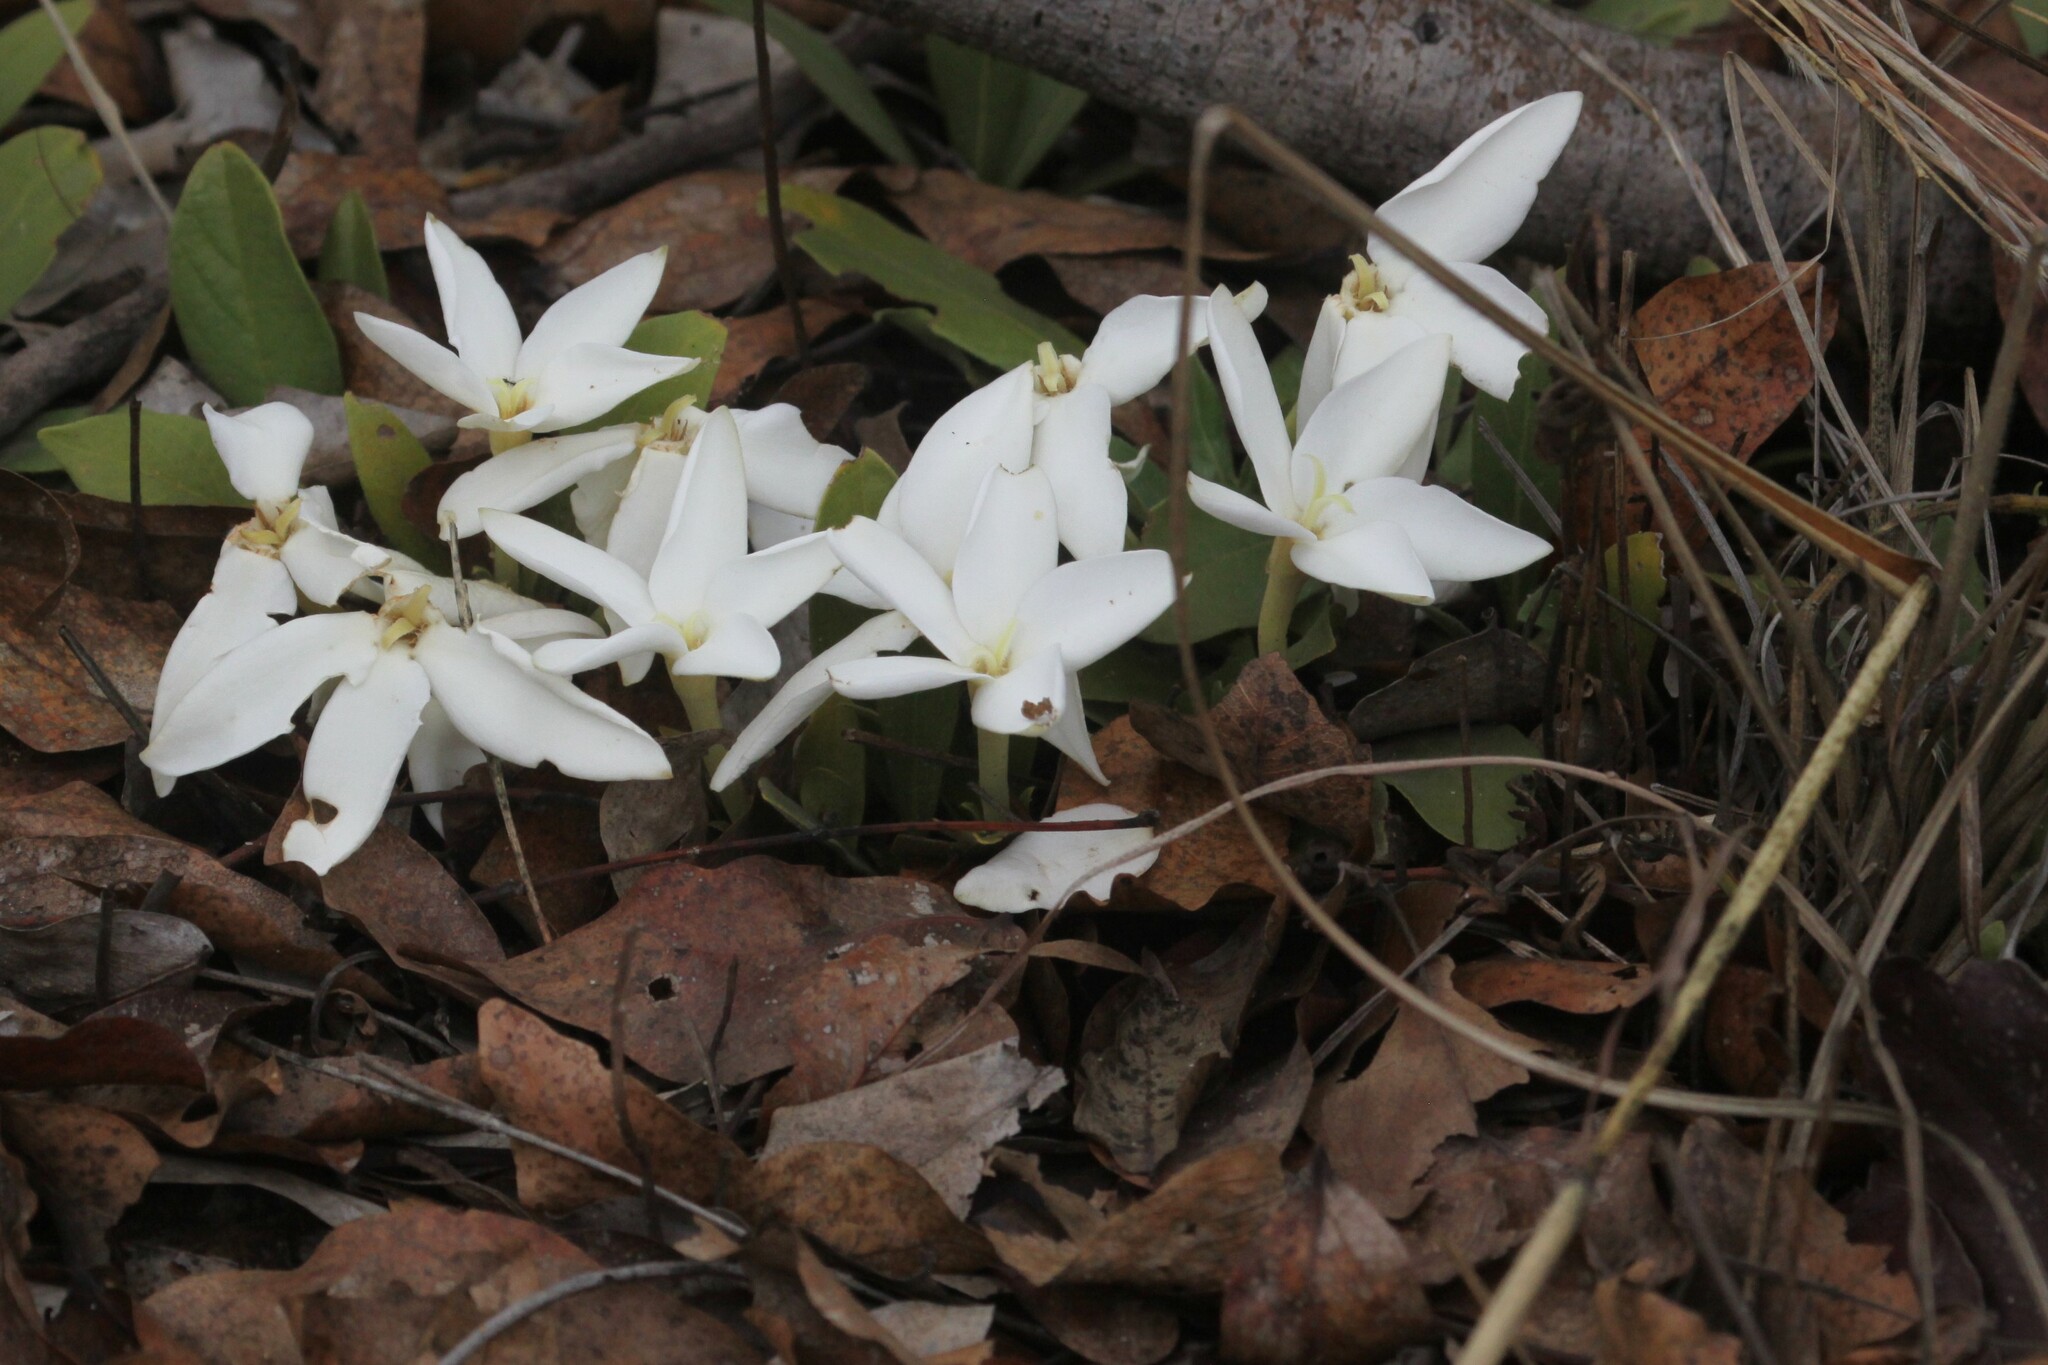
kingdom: Plantae
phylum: Tracheophyta
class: Magnoliopsida
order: Gentianales
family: Rubiaceae
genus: Leptactina
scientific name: Leptactina benguelensis
